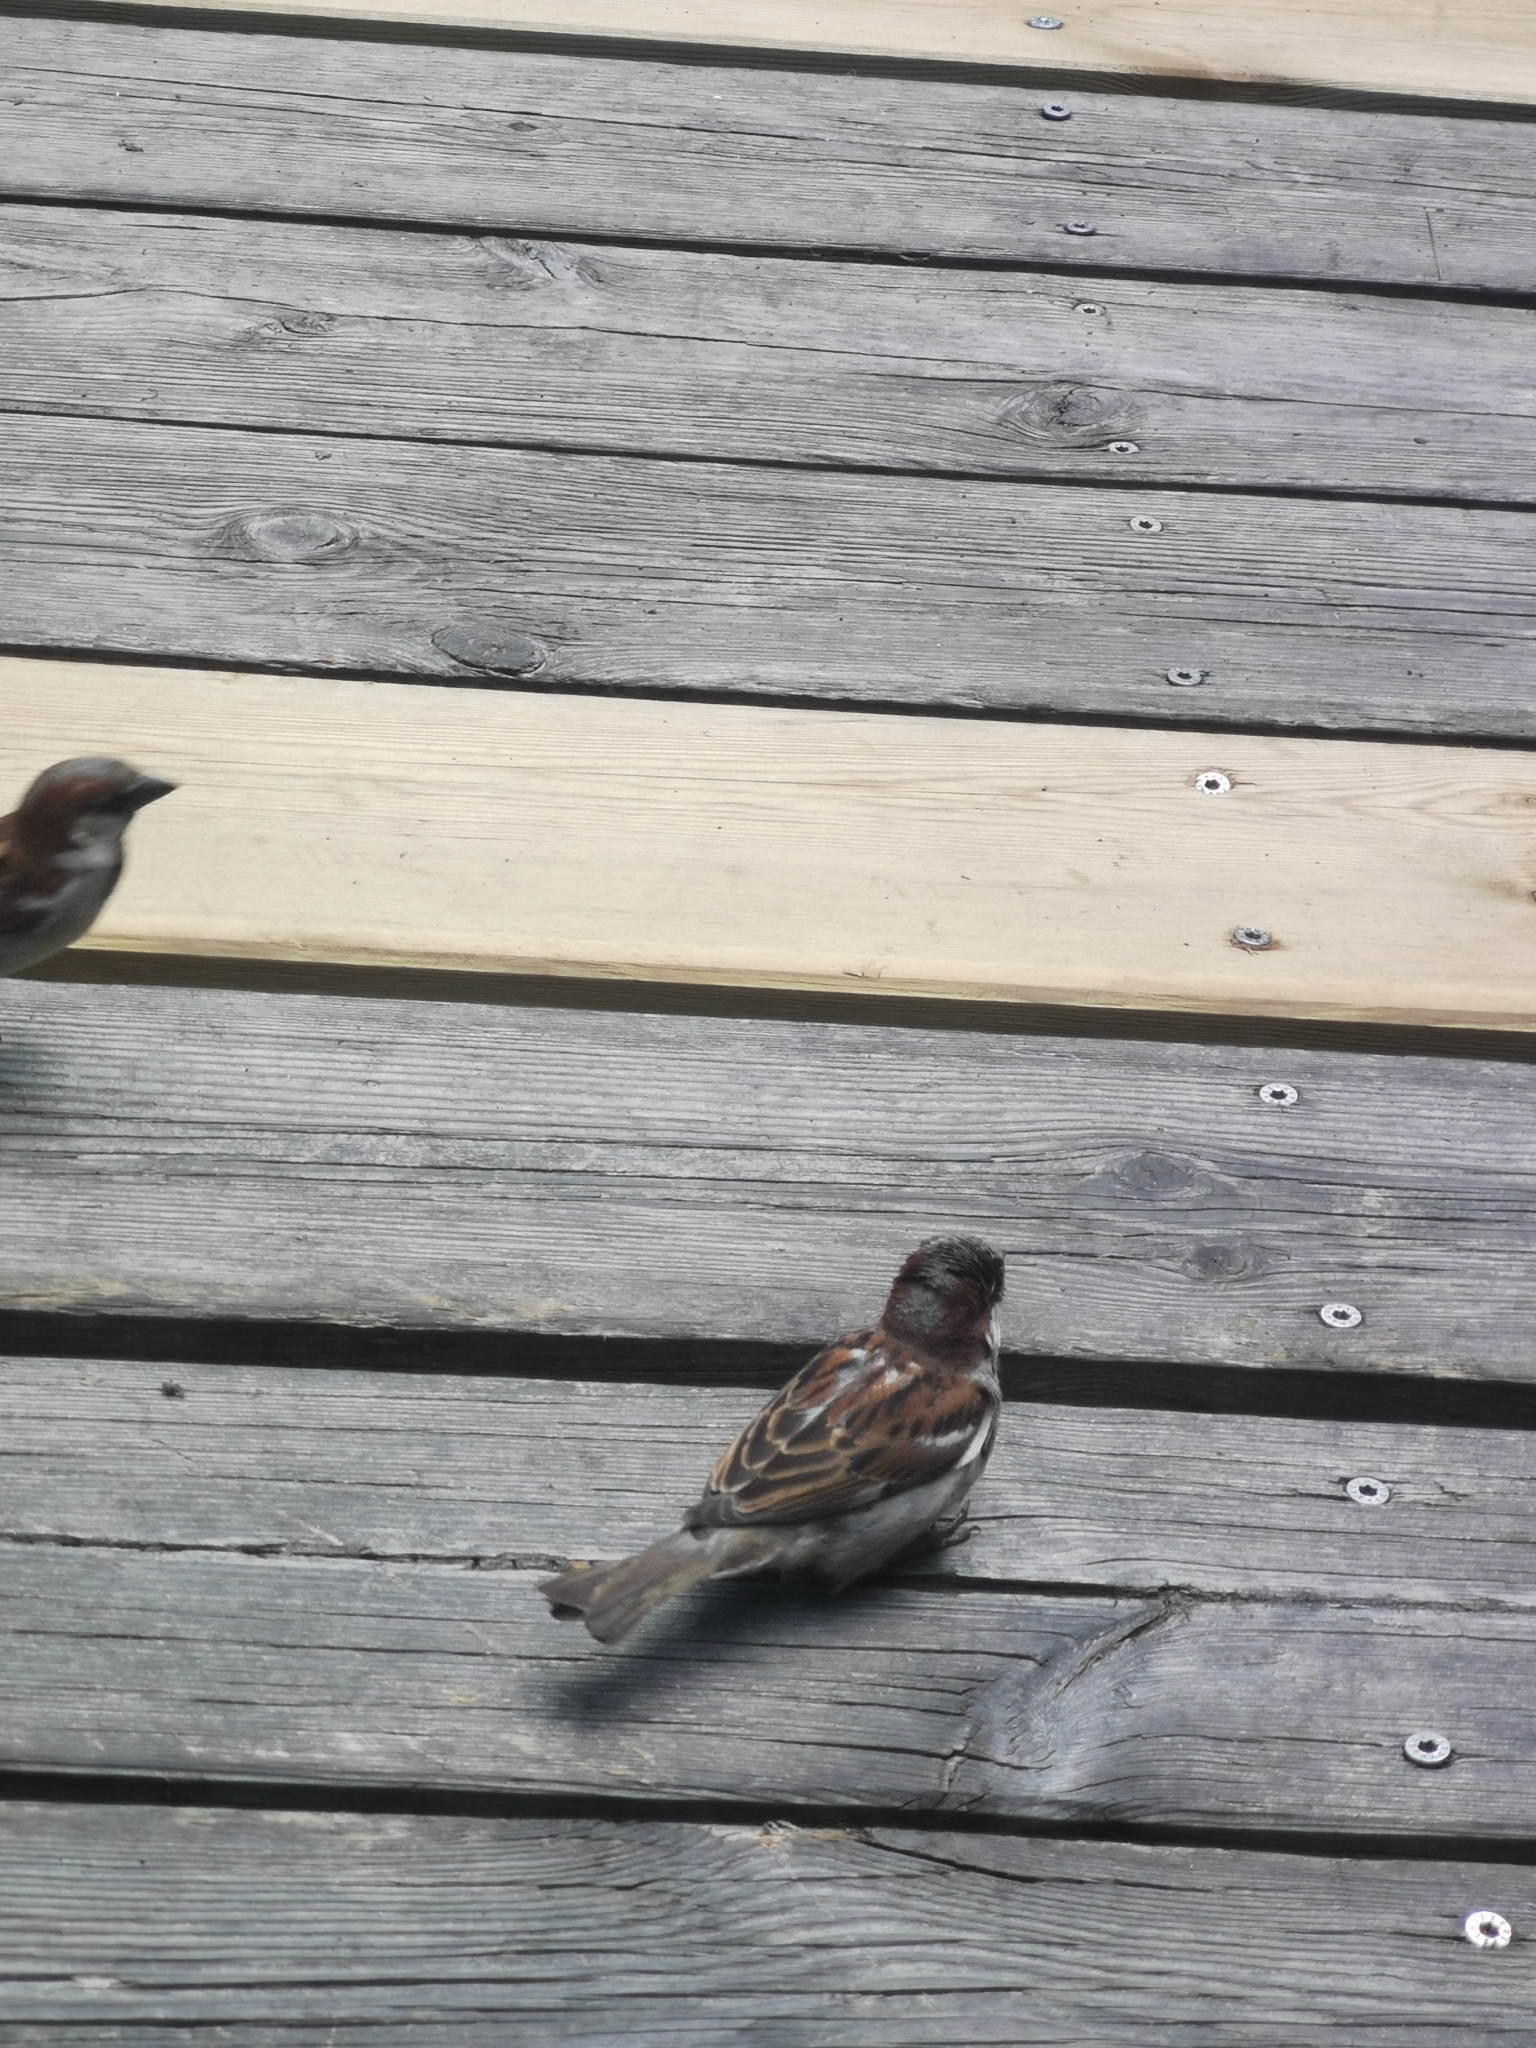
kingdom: Animalia
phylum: Chordata
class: Aves
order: Passeriformes
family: Passeridae
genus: Passer
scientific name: Passer domesticus
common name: House sparrow
